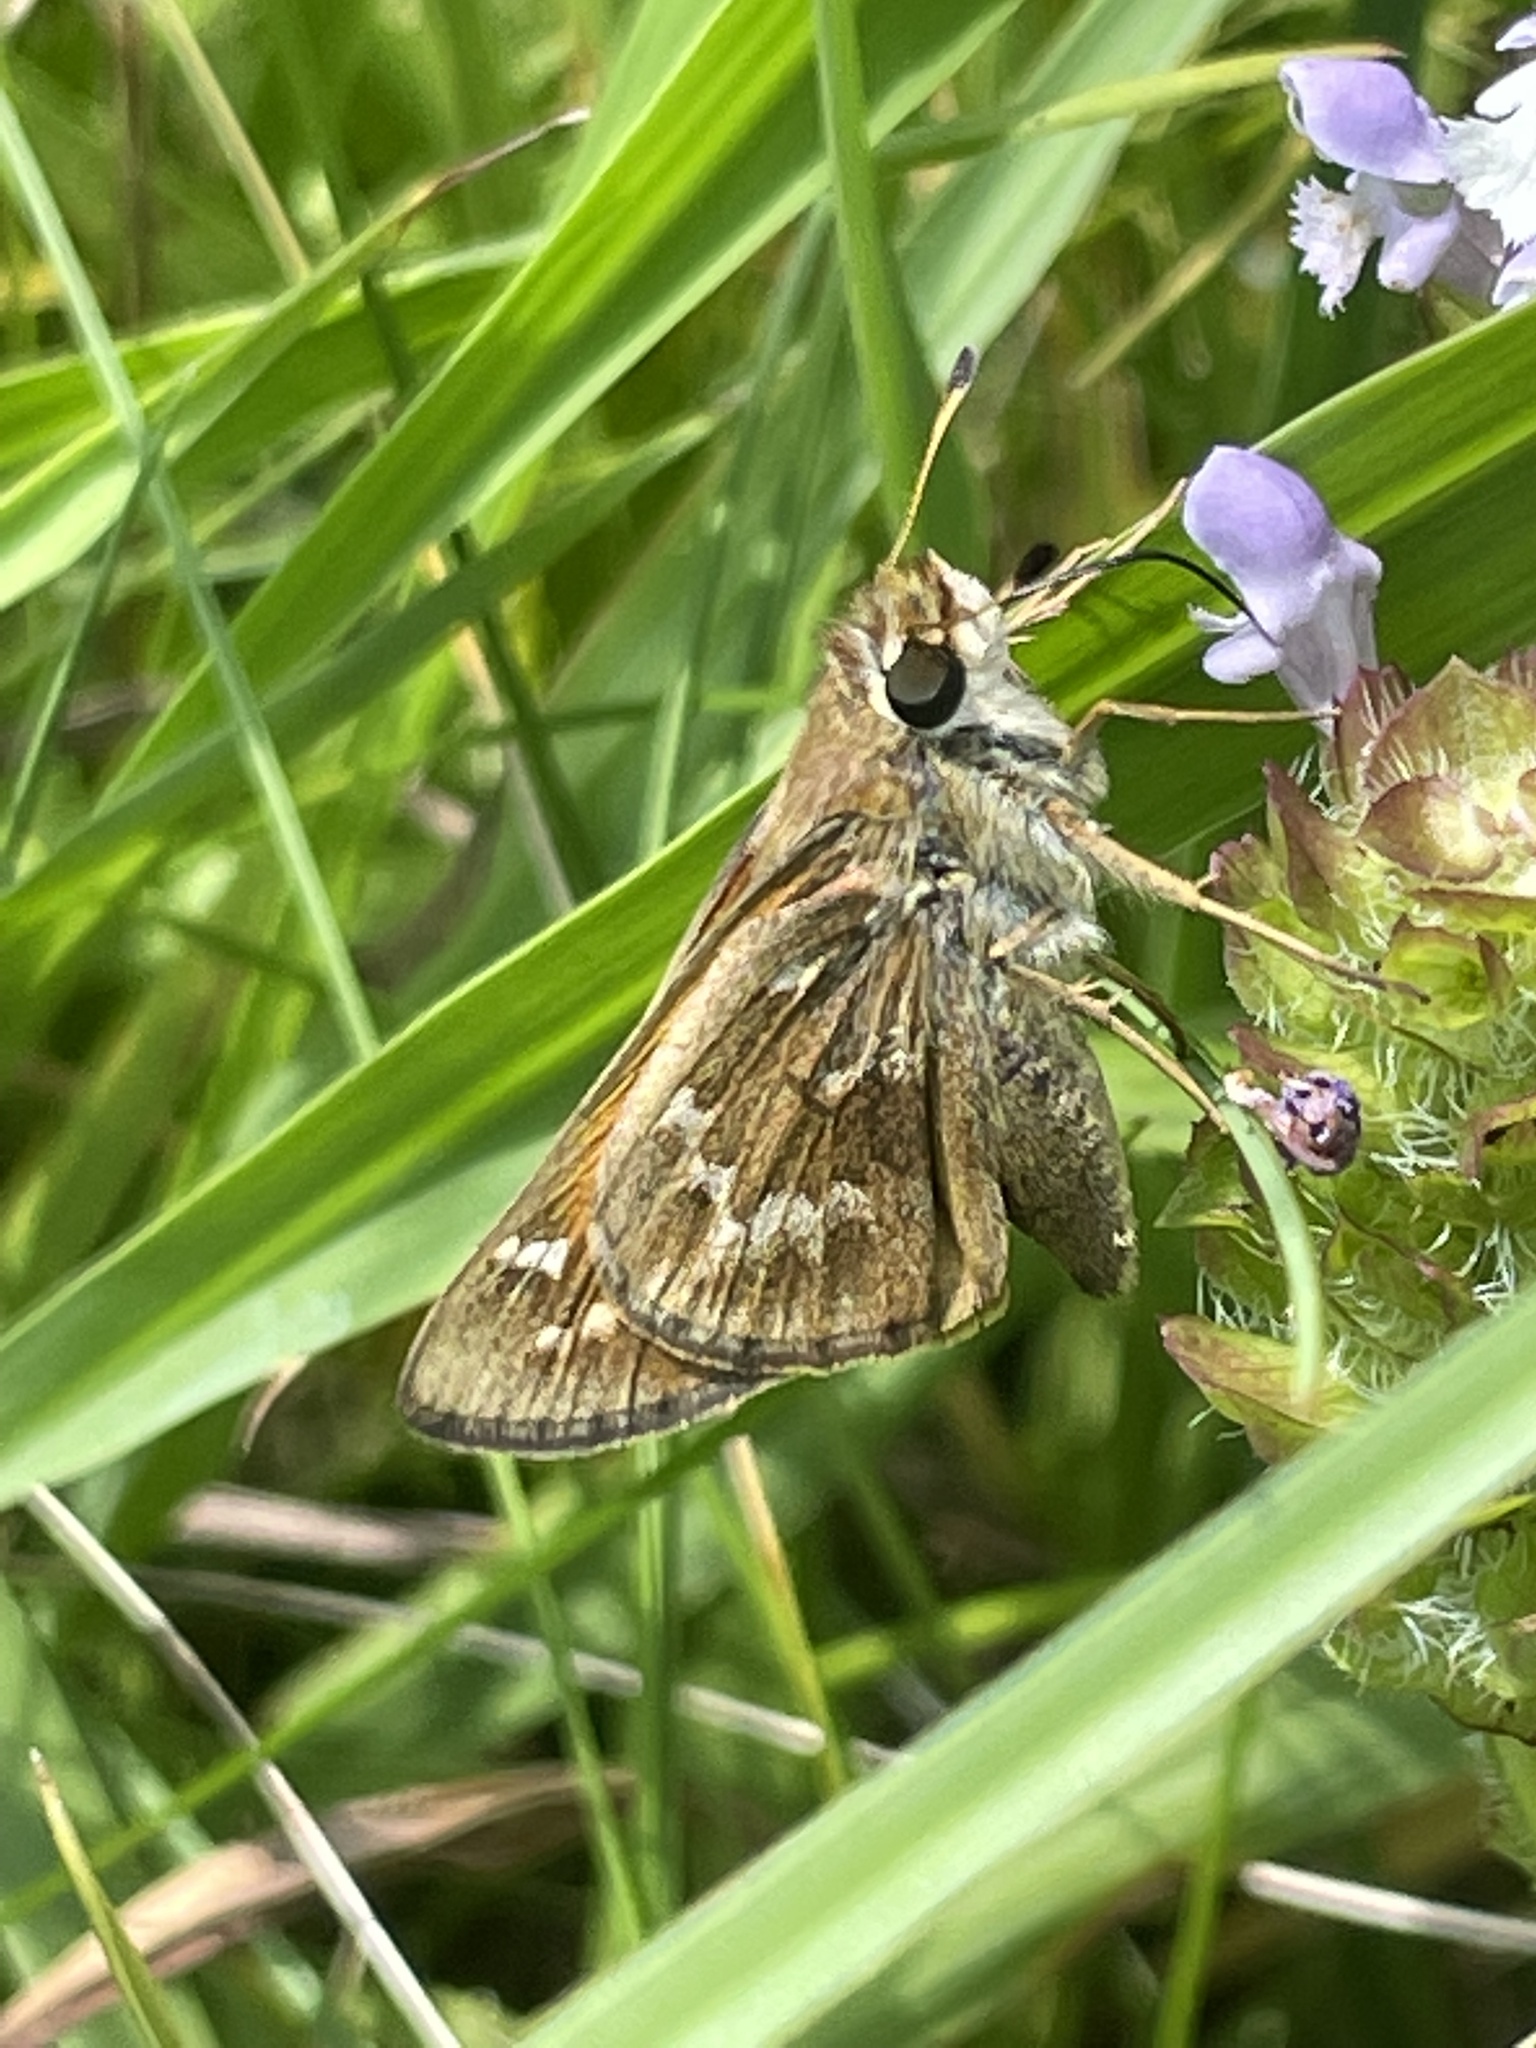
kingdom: Animalia
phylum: Arthropoda
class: Insecta
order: Lepidoptera
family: Hesperiidae
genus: Atalopedes
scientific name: Atalopedes
